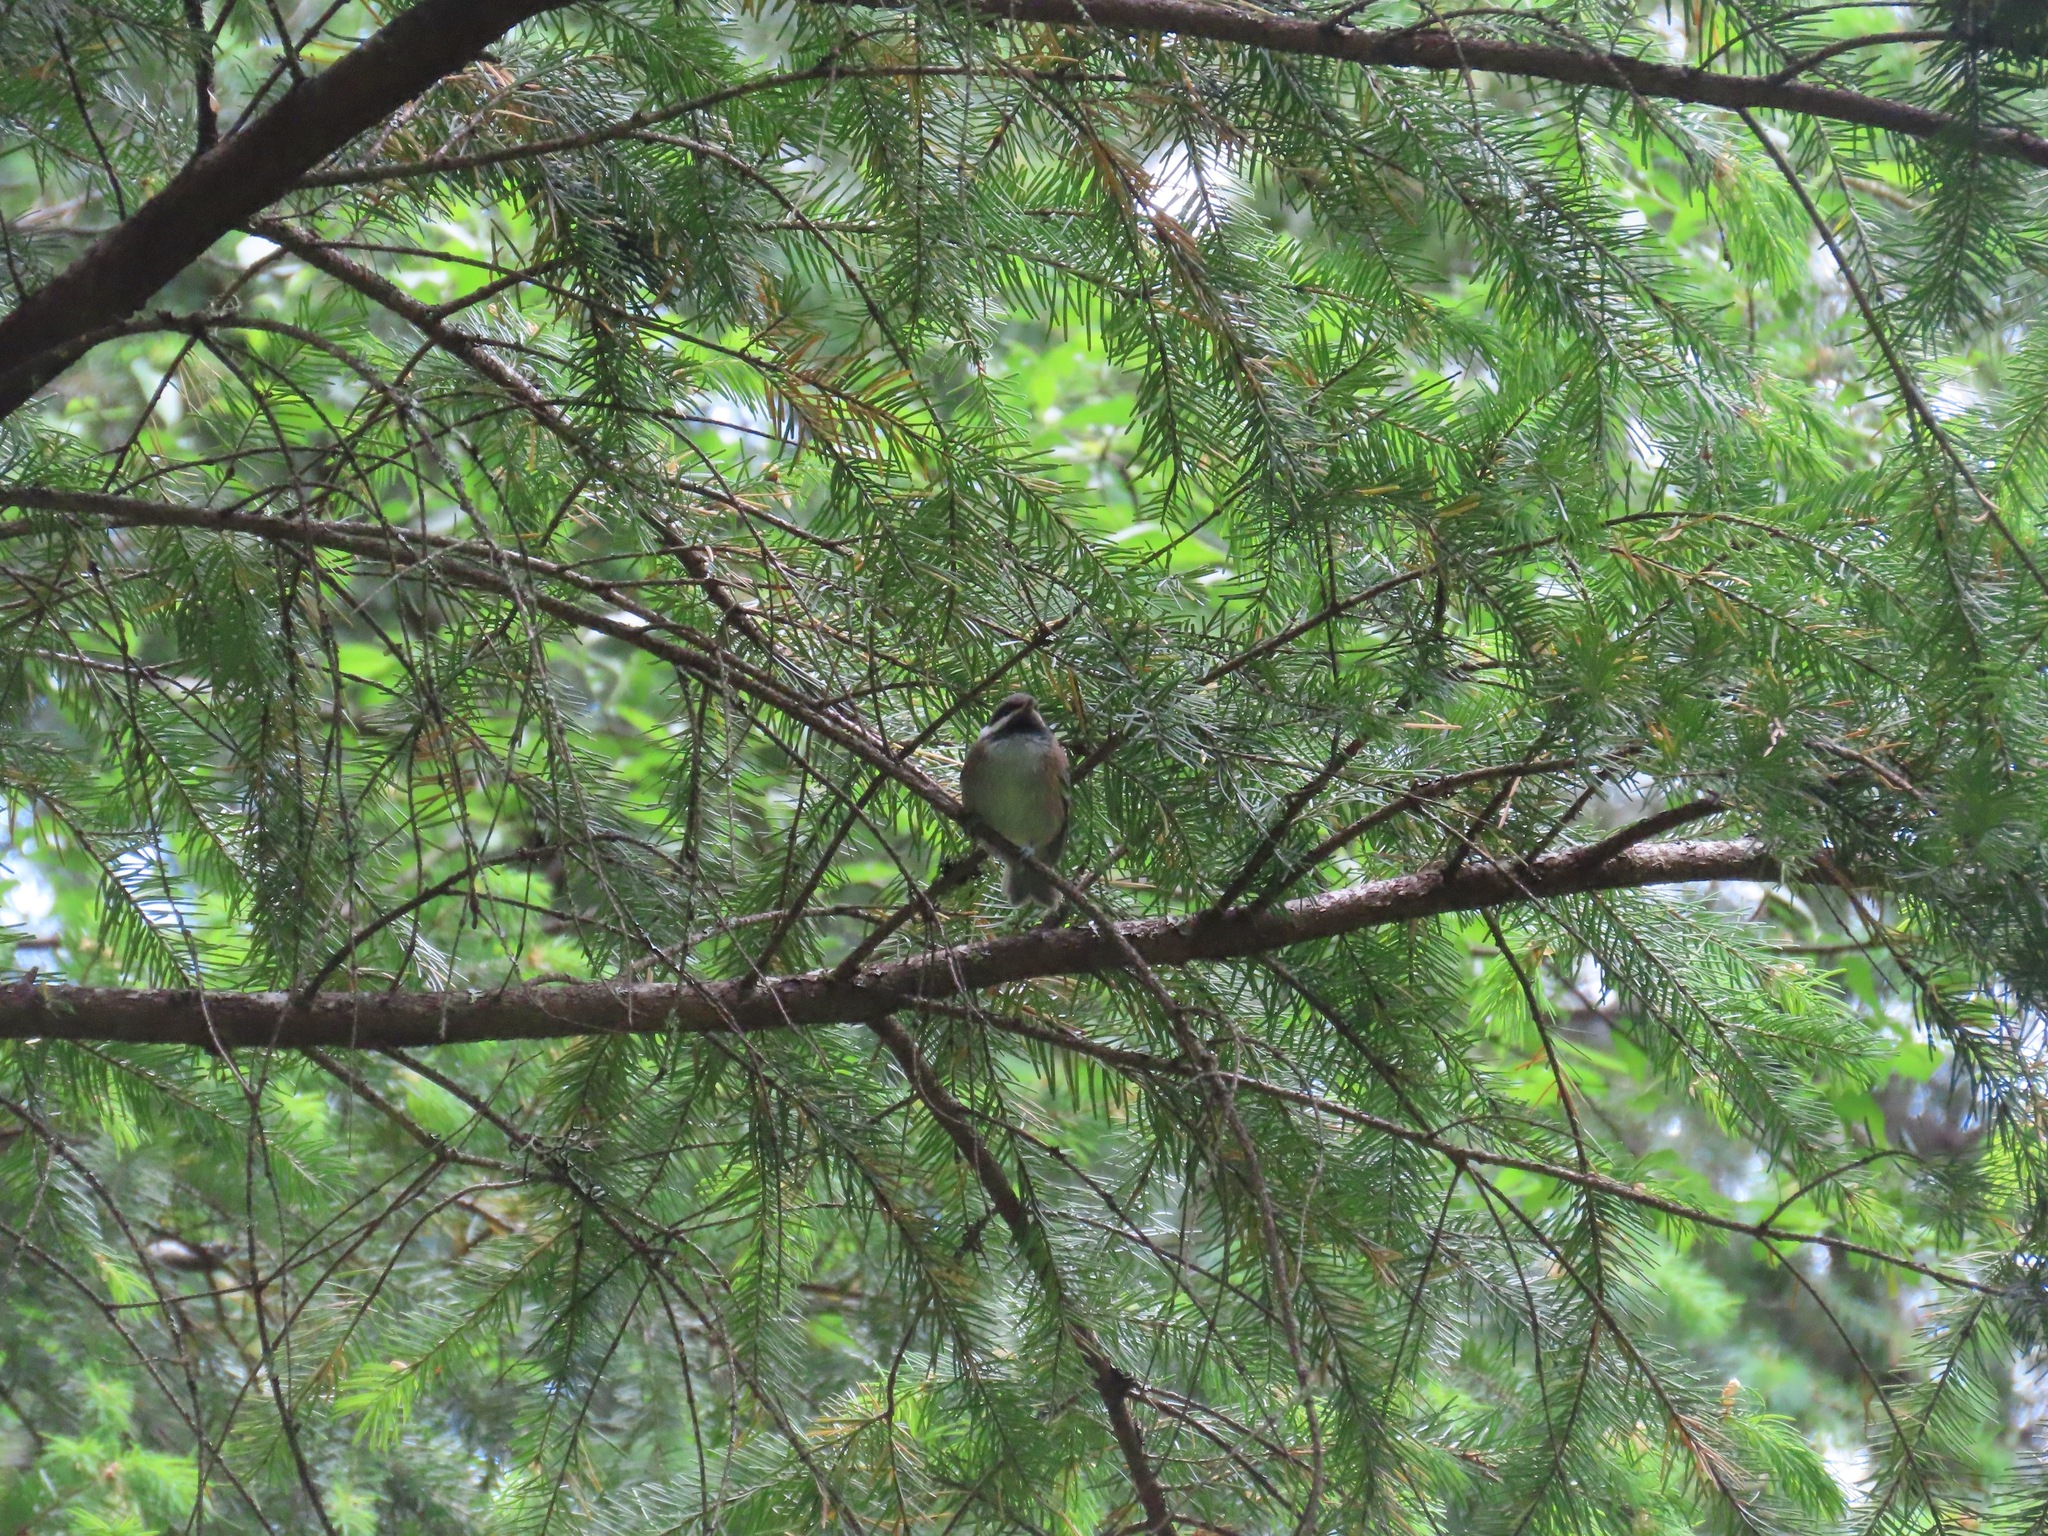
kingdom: Animalia
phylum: Chordata
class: Aves
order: Passeriformes
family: Paridae
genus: Poecile
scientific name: Poecile rufescens
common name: Chestnut-backed chickadee
